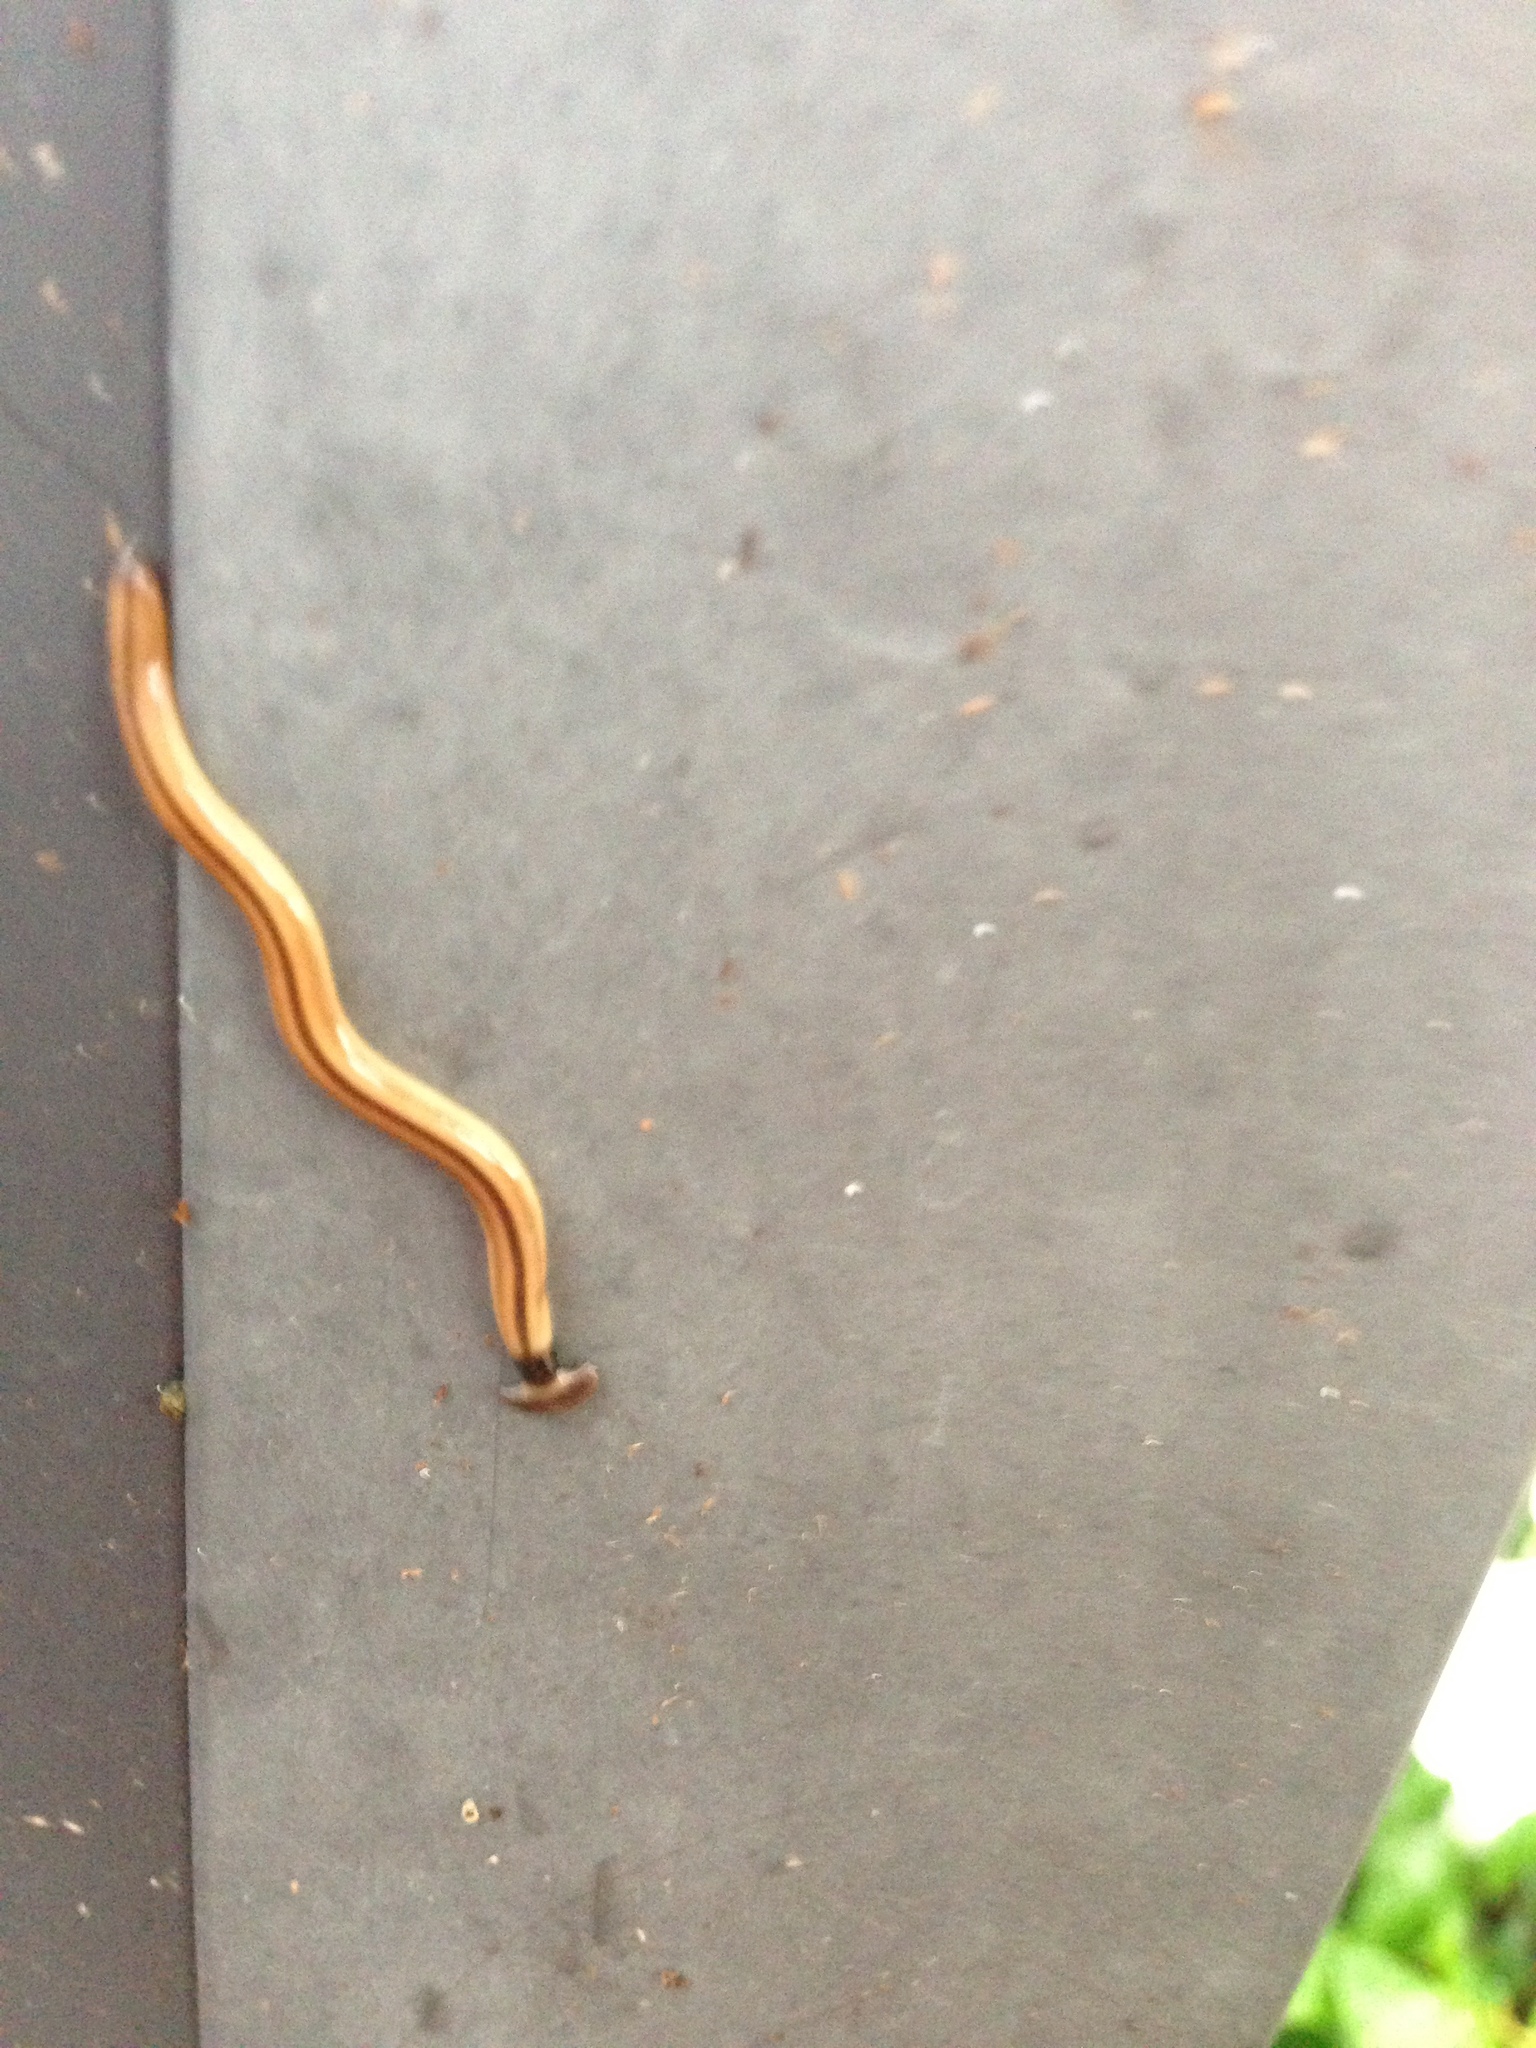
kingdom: Animalia
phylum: Platyhelminthes
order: Tricladida
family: Geoplanidae
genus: Bipalium
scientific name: Bipalium vagum
